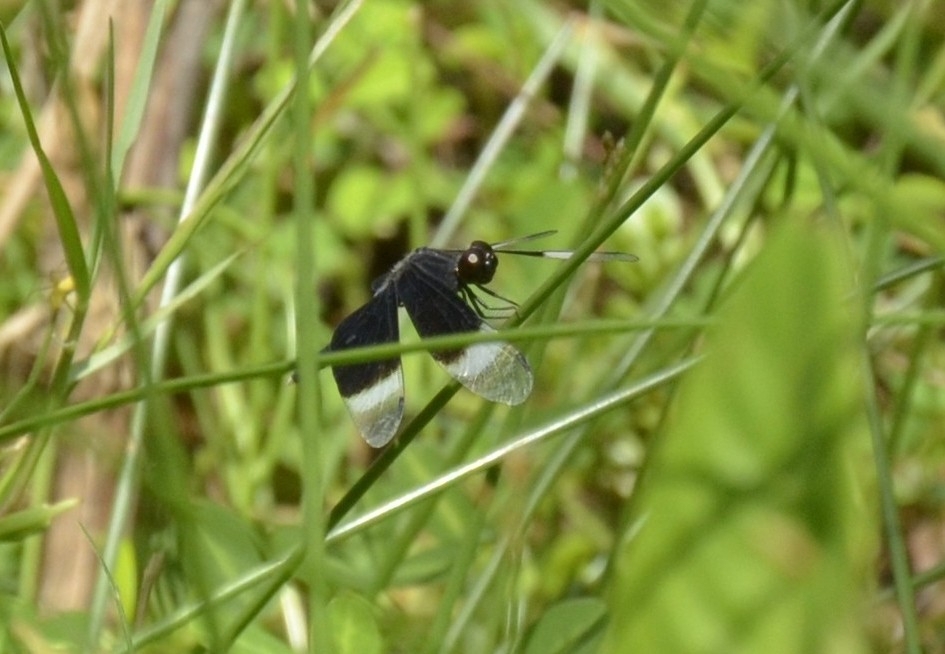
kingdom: Animalia
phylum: Arthropoda
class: Insecta
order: Odonata
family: Libellulidae
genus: Neurothemis
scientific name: Neurothemis tullia
